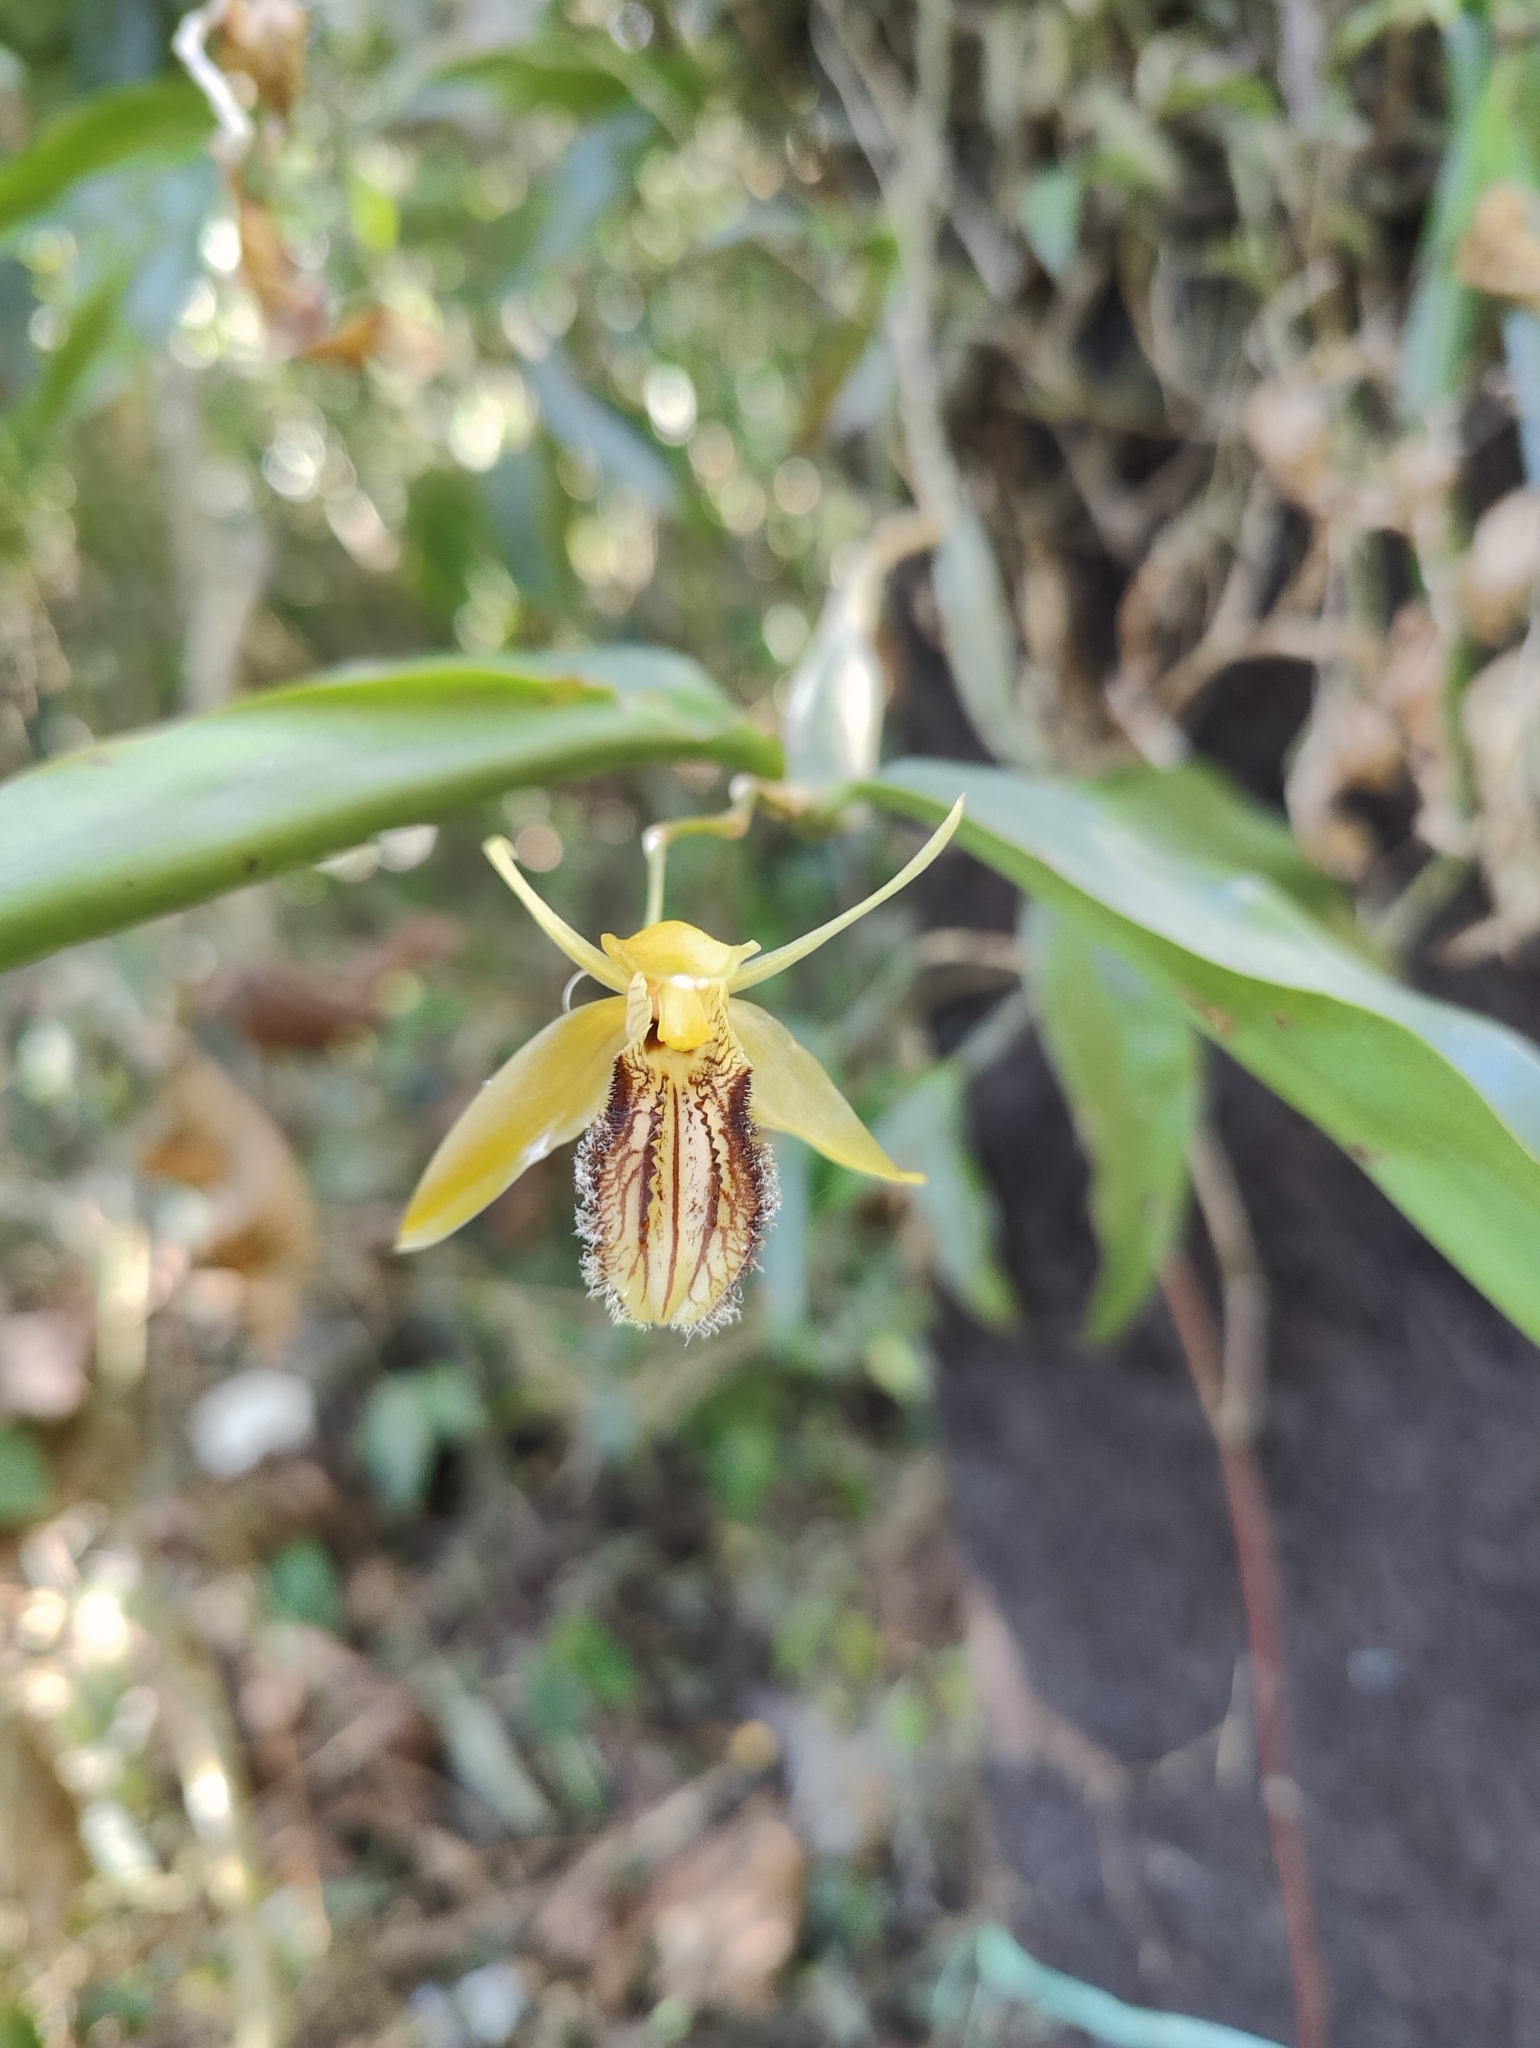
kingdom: Plantae
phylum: Tracheophyta
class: Liliopsida
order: Asparagales
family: Orchidaceae
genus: Coelogyne
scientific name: Coelogyne ovalis
